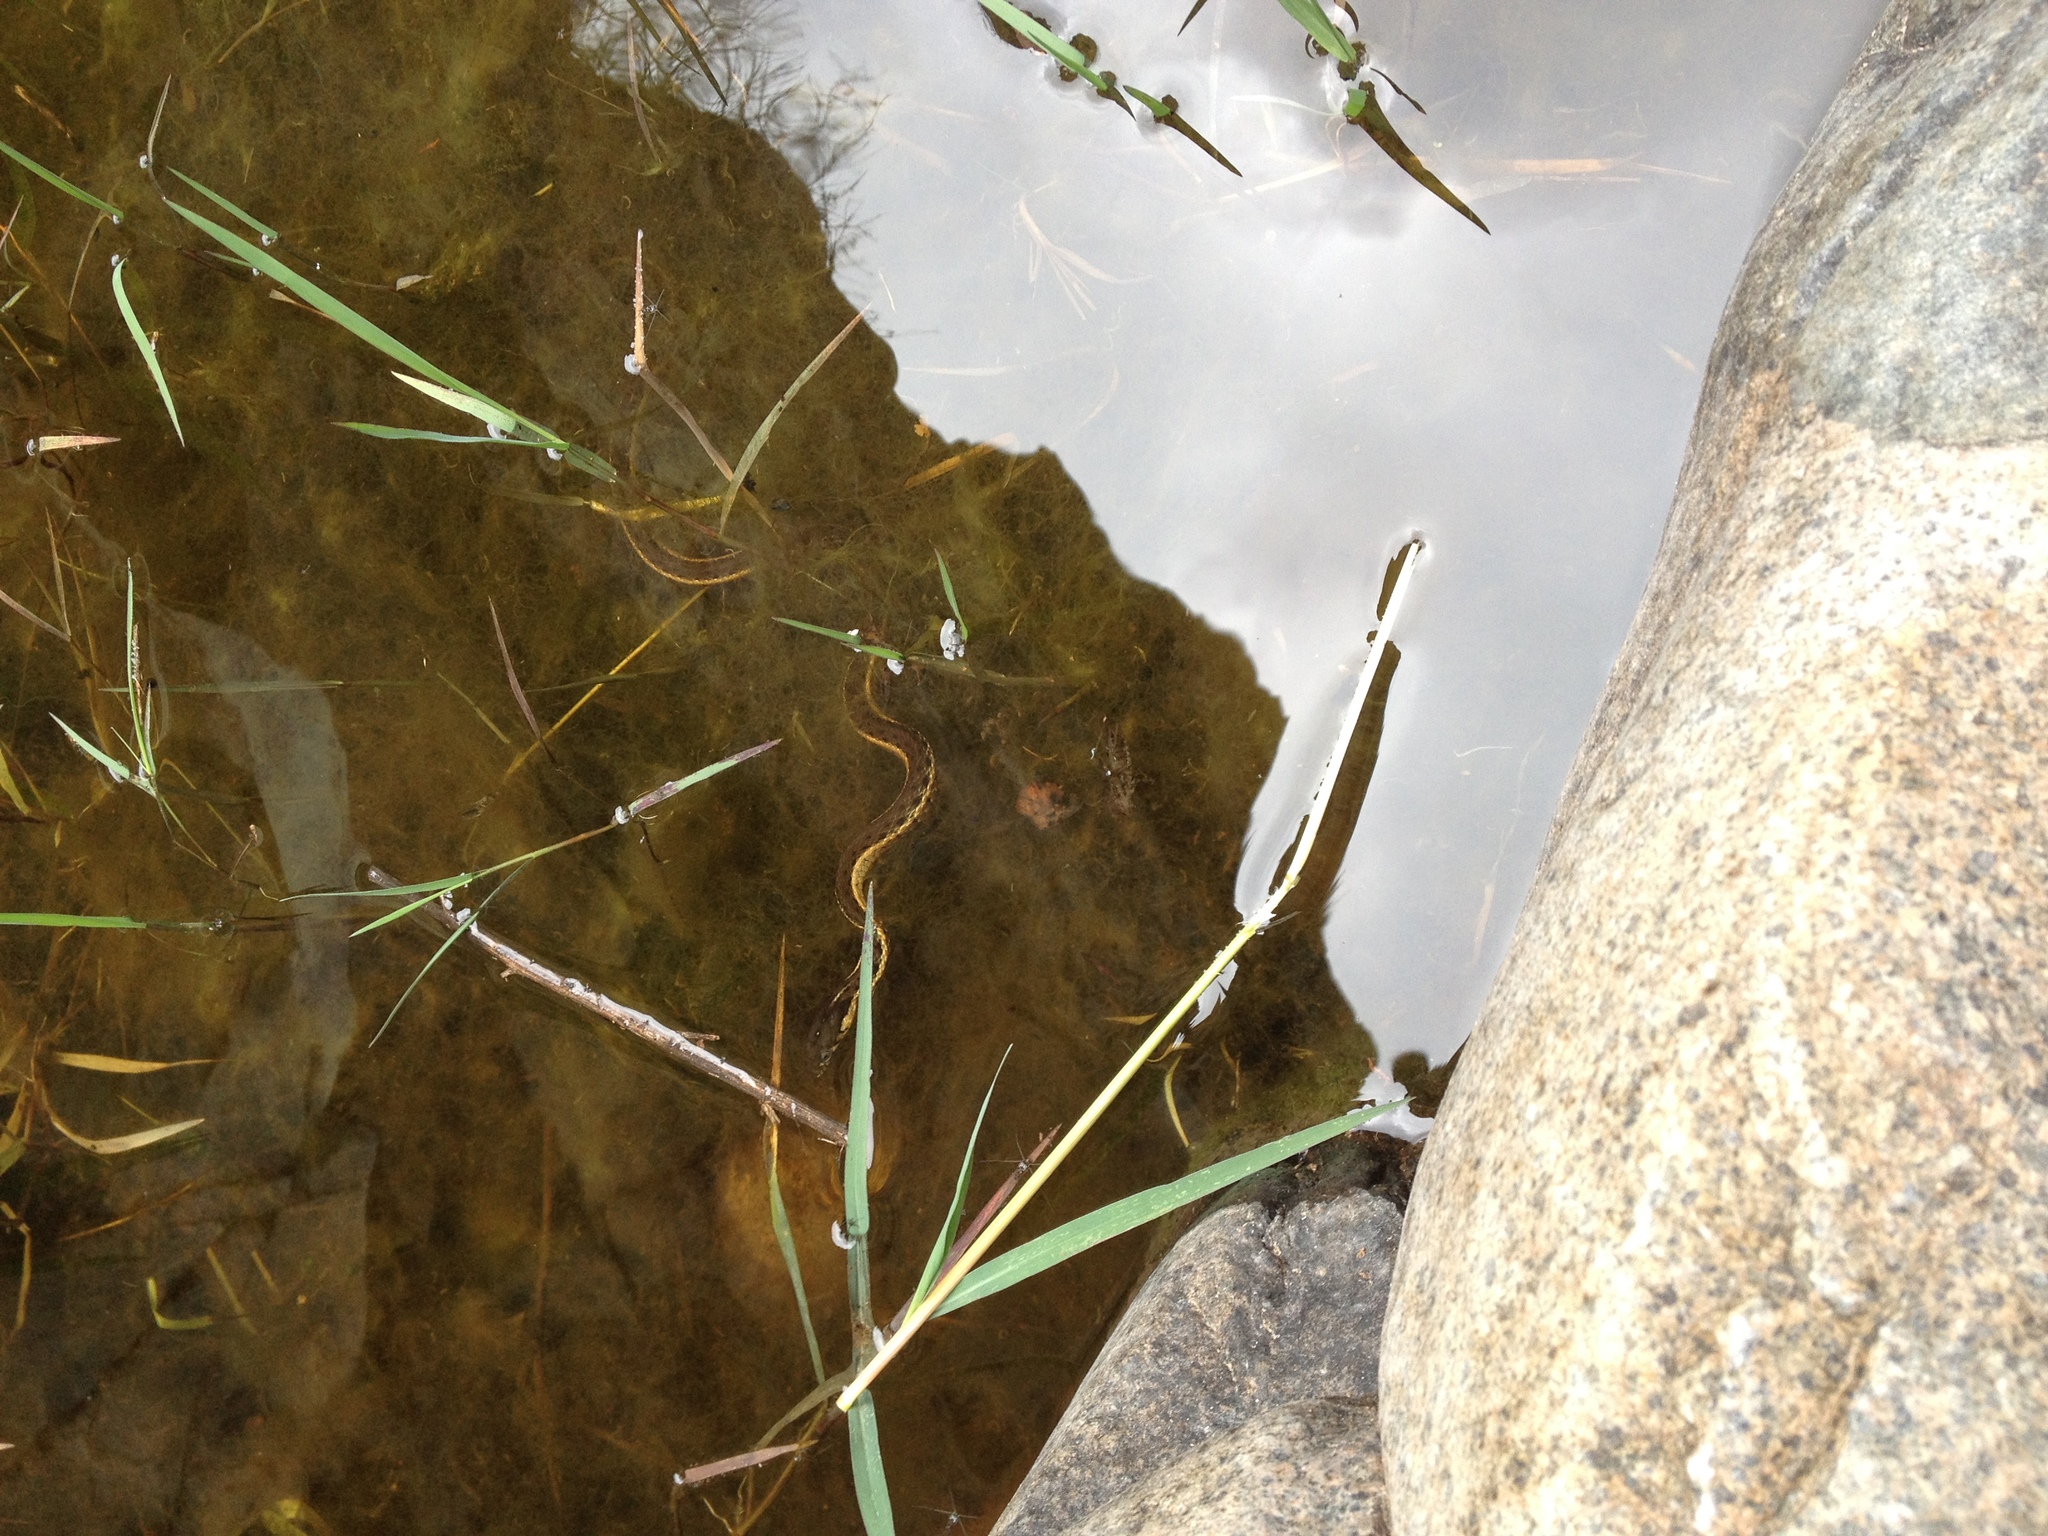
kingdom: Animalia
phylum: Chordata
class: Squamata
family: Colubridae
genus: Thamnophis
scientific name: Thamnophis hammondii
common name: Two-striped garter snake
